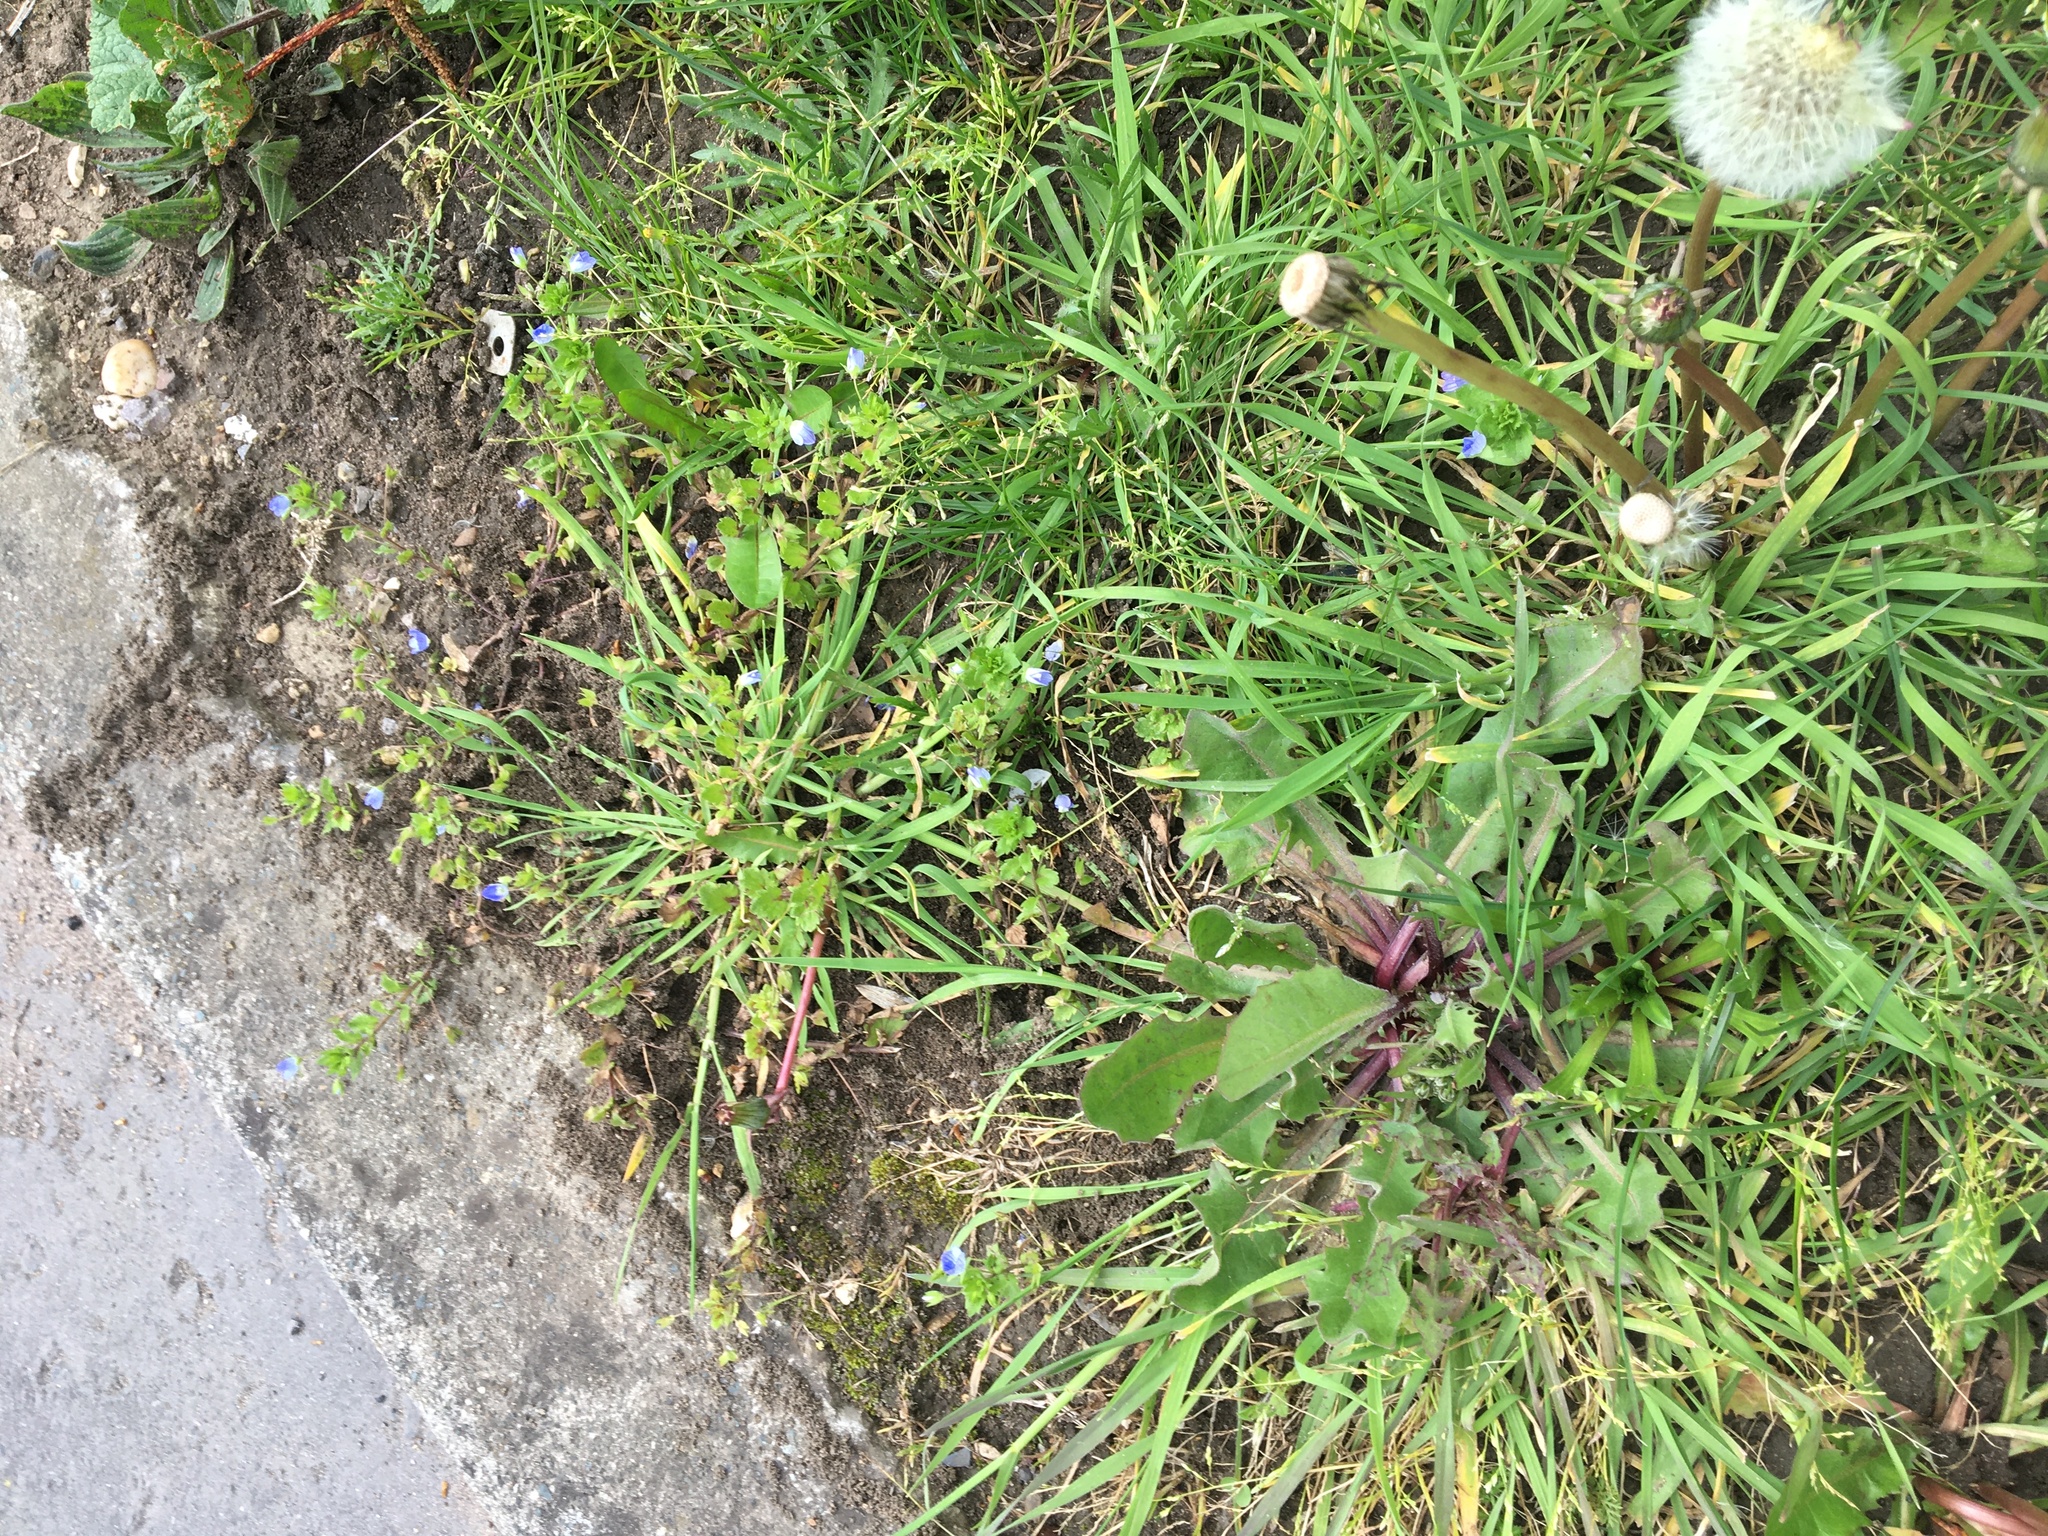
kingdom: Plantae
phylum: Tracheophyta
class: Magnoliopsida
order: Lamiales
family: Plantaginaceae
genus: Veronica
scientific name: Veronica persica
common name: Common field-speedwell
